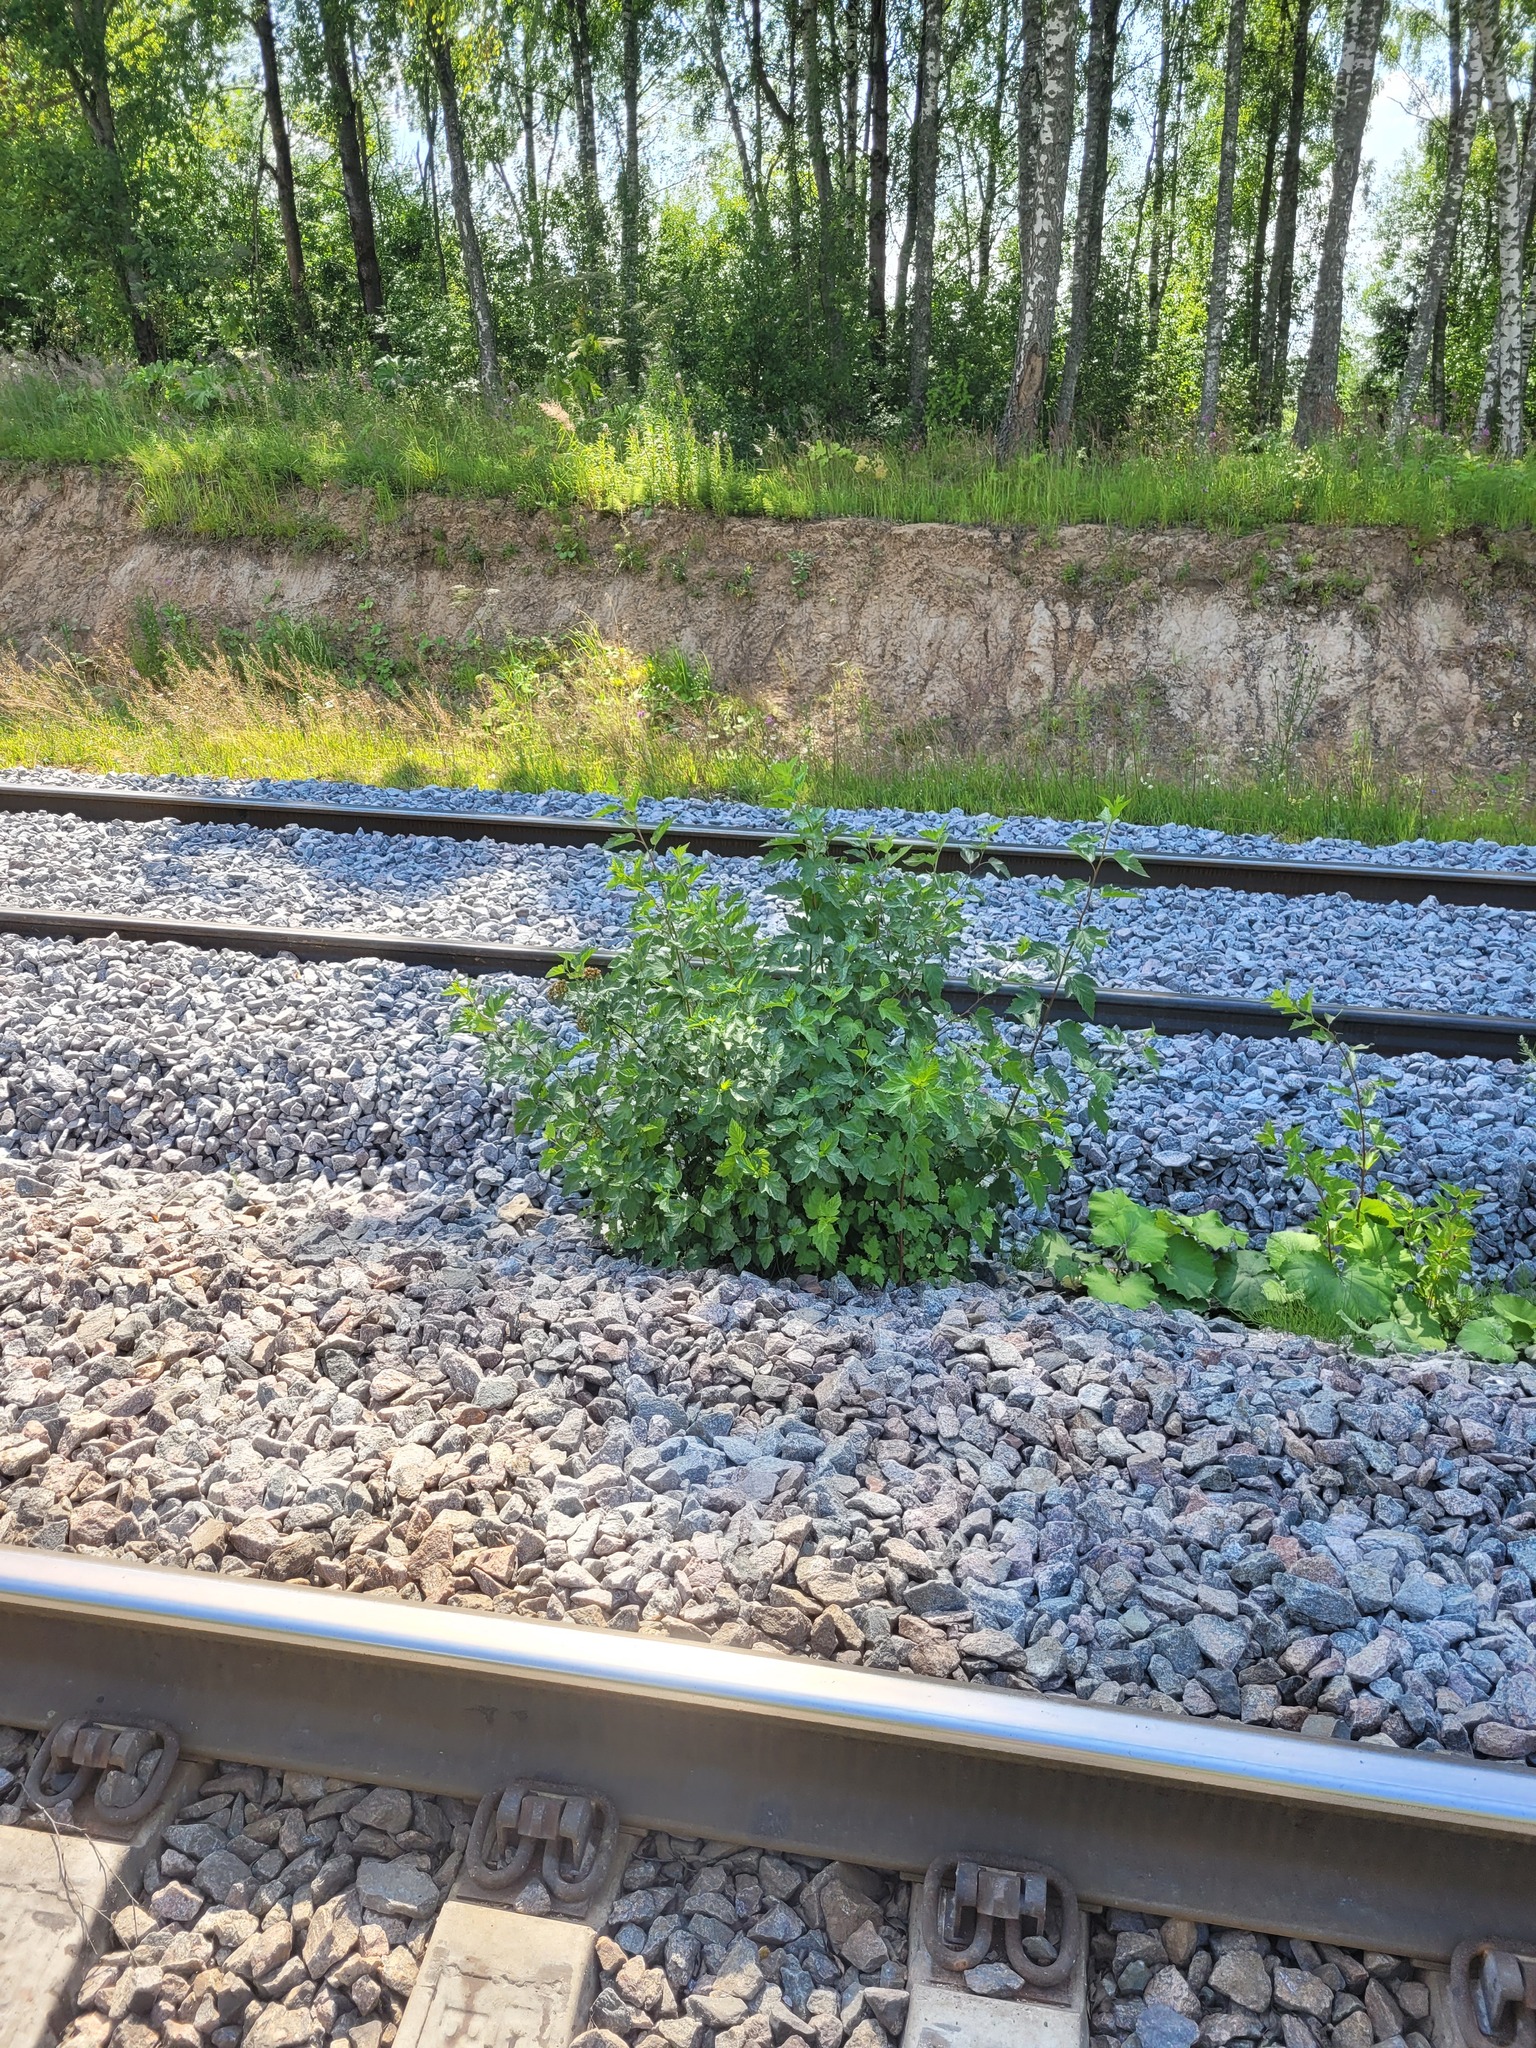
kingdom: Plantae
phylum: Tracheophyta
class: Magnoliopsida
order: Rosales
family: Rosaceae
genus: Physocarpus
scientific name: Physocarpus opulifolius
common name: Ninebark
